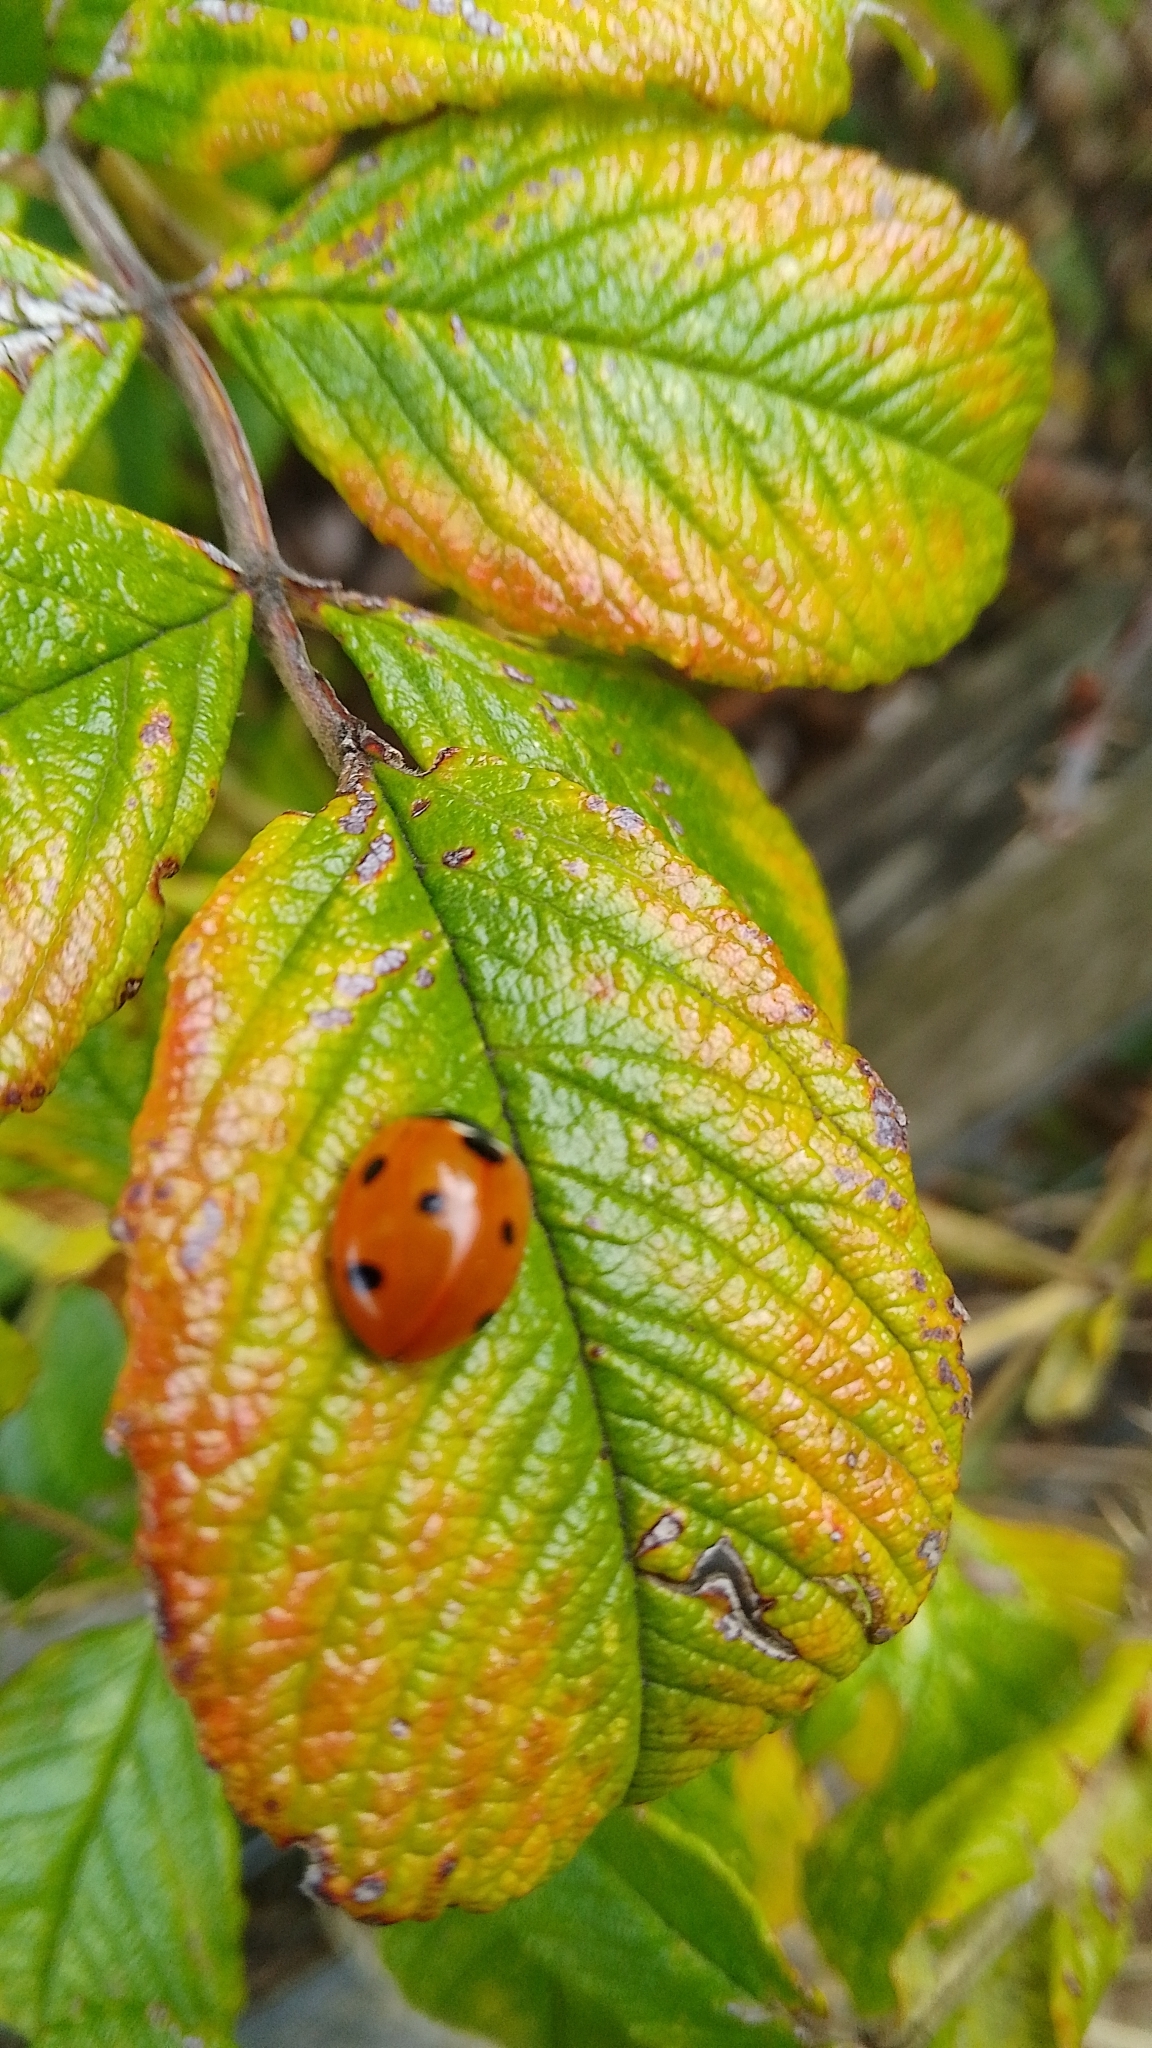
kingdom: Animalia
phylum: Arthropoda
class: Insecta
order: Coleoptera
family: Coccinellidae
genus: Coccinella
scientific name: Coccinella septempunctata
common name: Sevenspotted lady beetle
